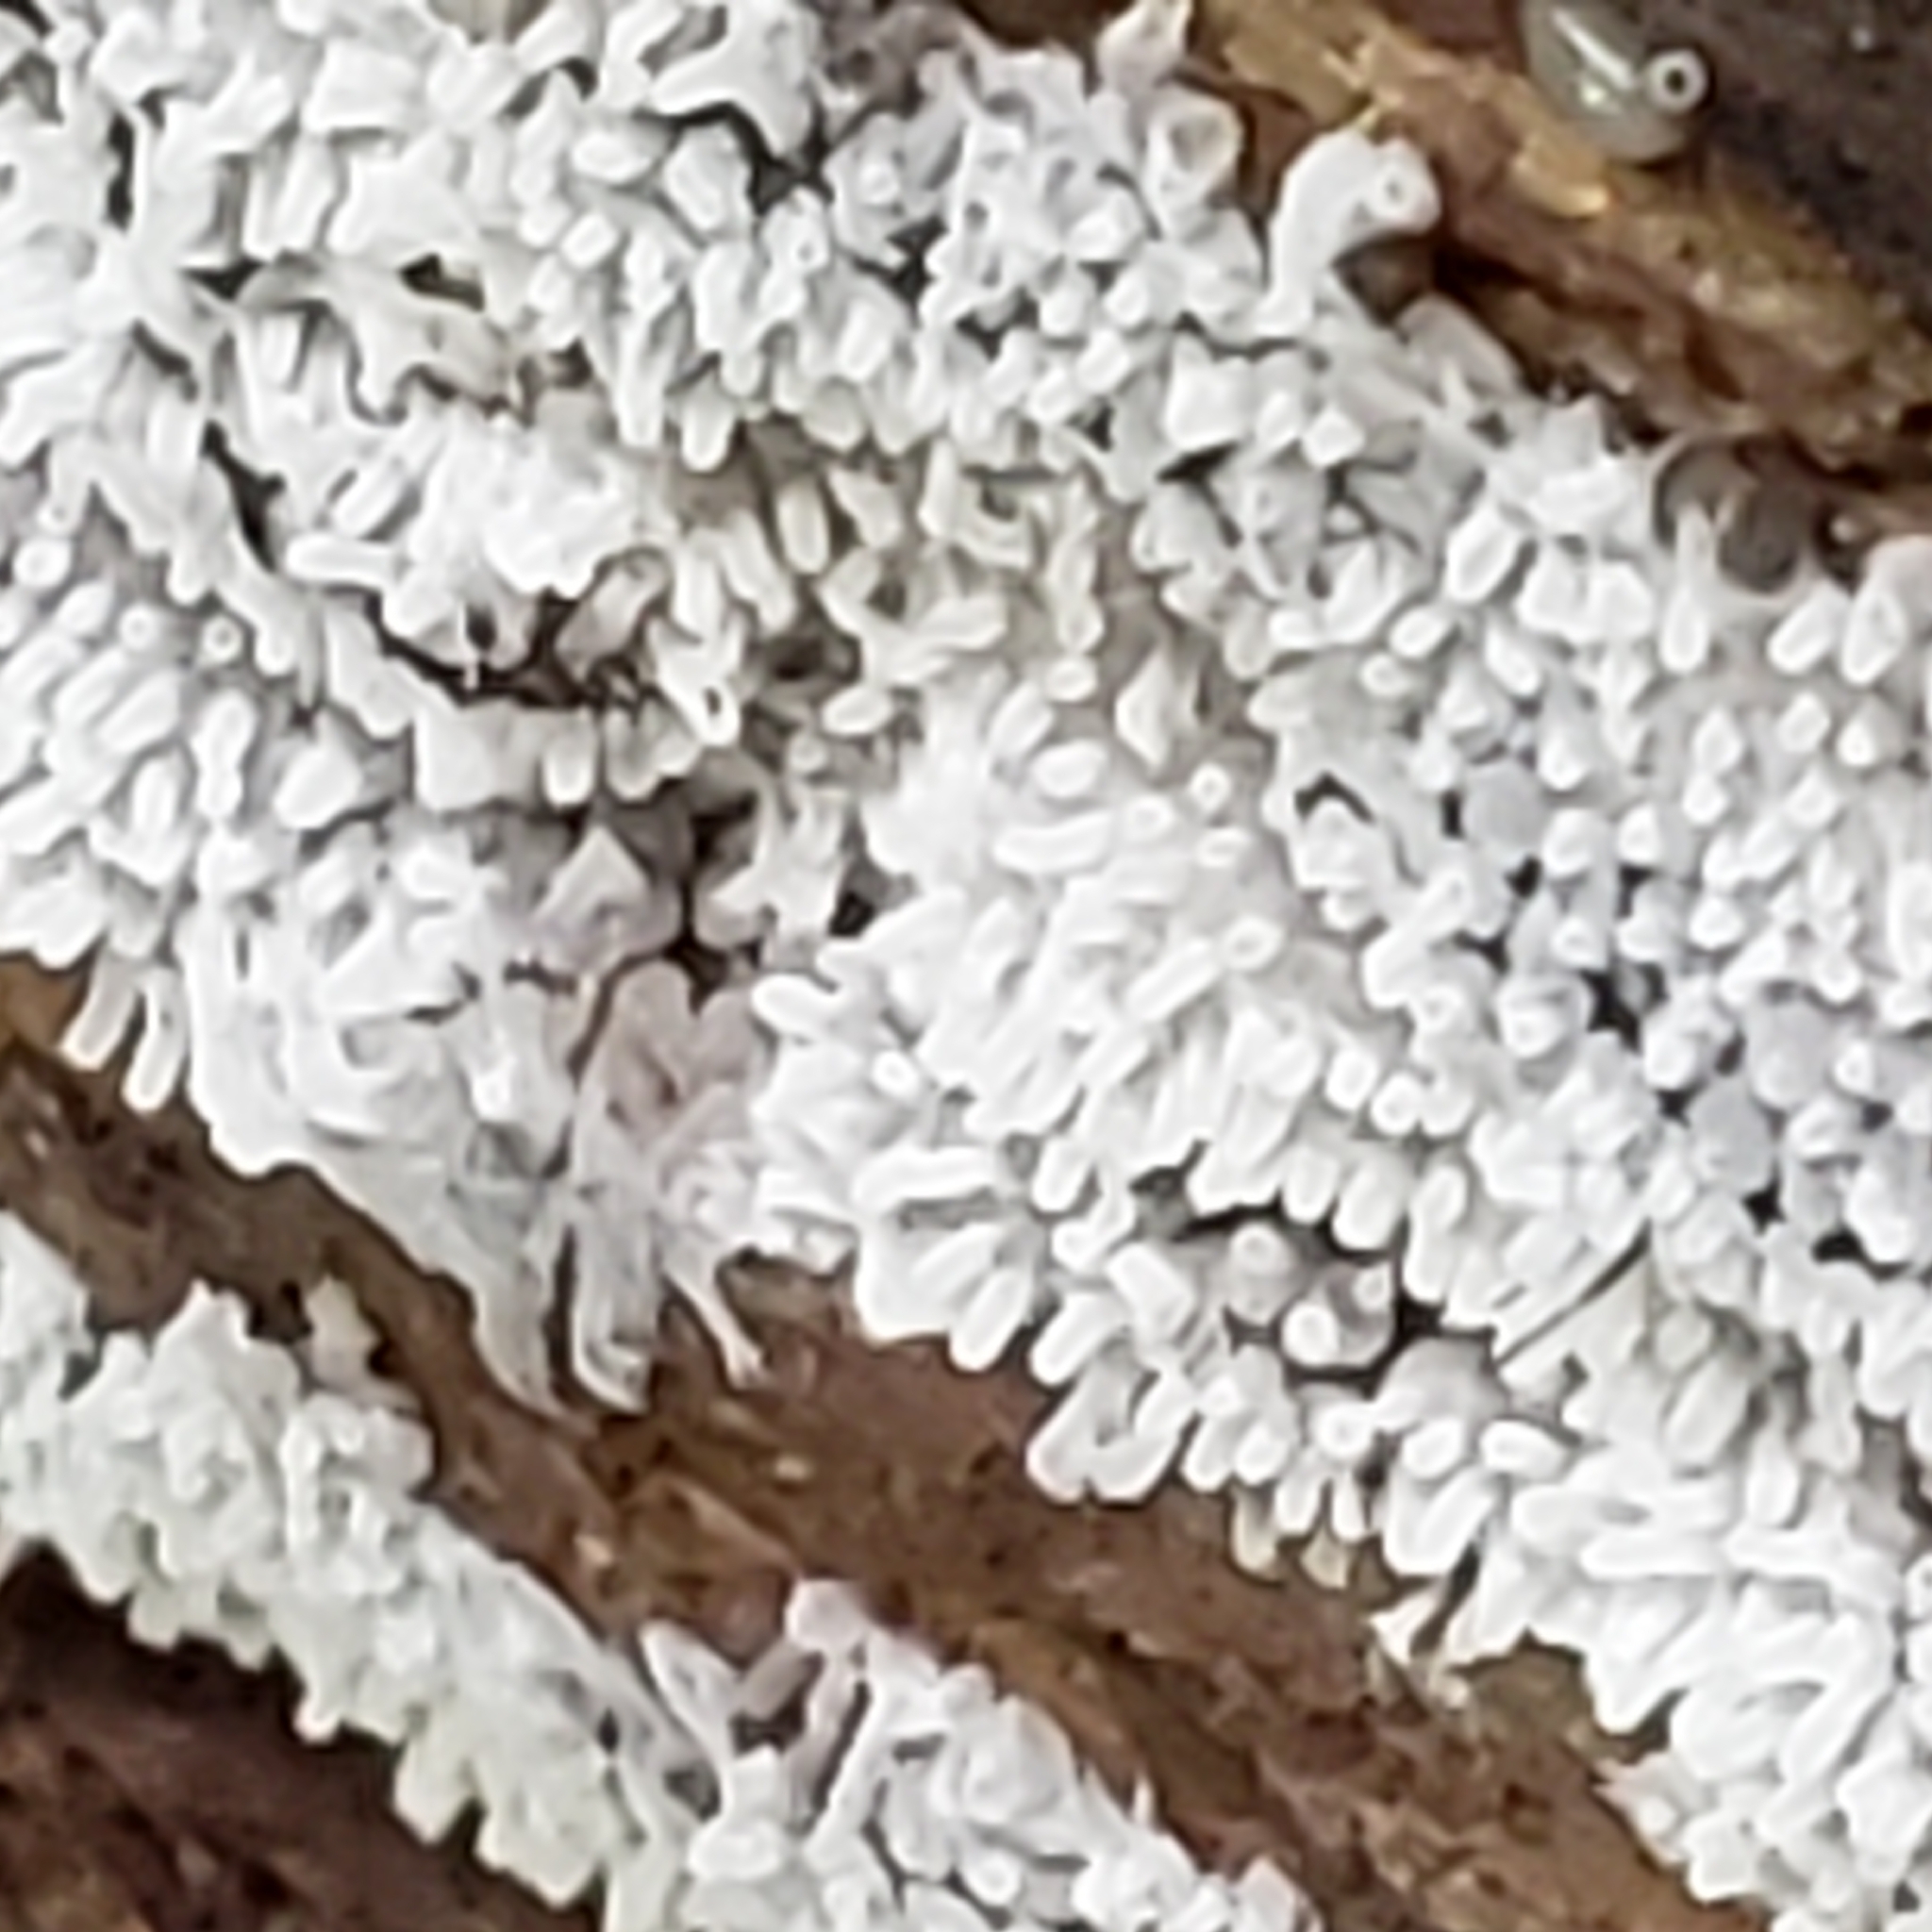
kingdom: Protozoa
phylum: Mycetozoa
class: Protosteliomycetes
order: Ceratiomyxales
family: Ceratiomyxaceae
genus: Ceratiomyxa
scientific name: Ceratiomyxa fruticulosa
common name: Honeycomb coral slime mold
